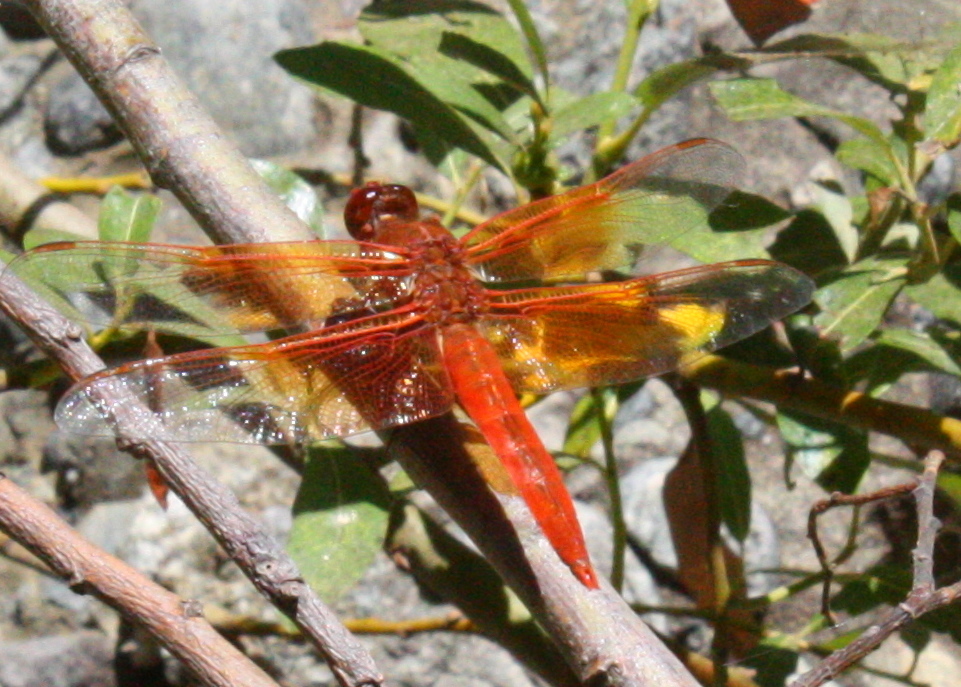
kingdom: Animalia
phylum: Arthropoda
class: Insecta
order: Odonata
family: Libellulidae
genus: Libellula
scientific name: Libellula saturata
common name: Flame skimmer
